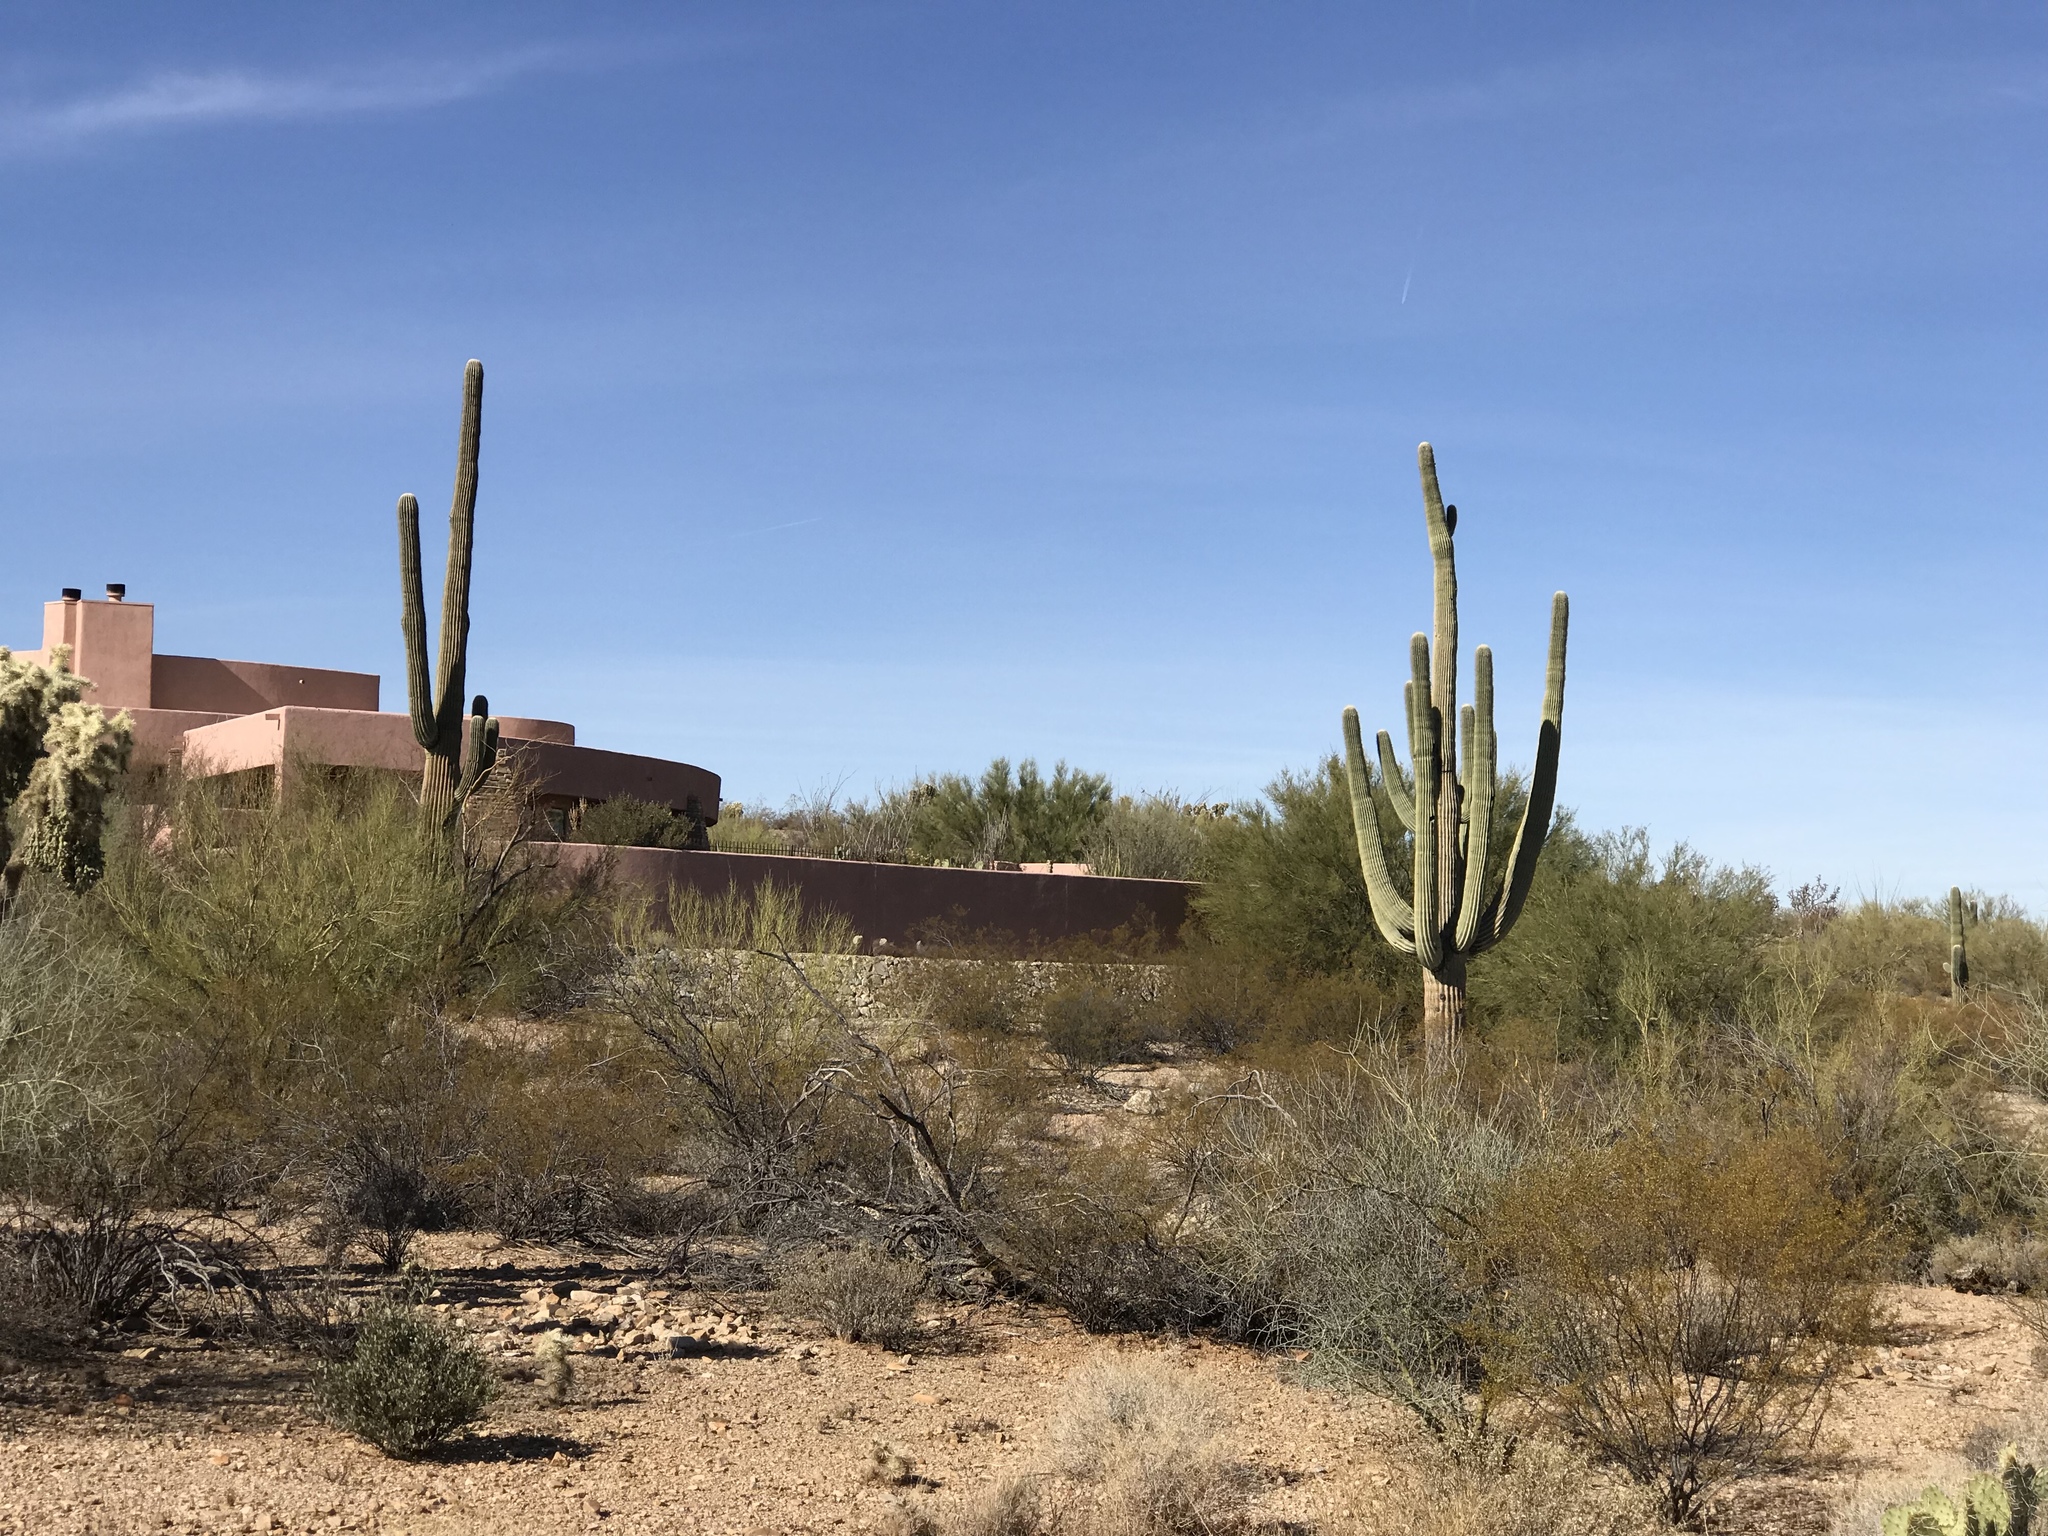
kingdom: Plantae
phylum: Tracheophyta
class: Magnoliopsida
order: Caryophyllales
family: Cactaceae
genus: Carnegiea
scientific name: Carnegiea gigantea
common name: Saguaro
